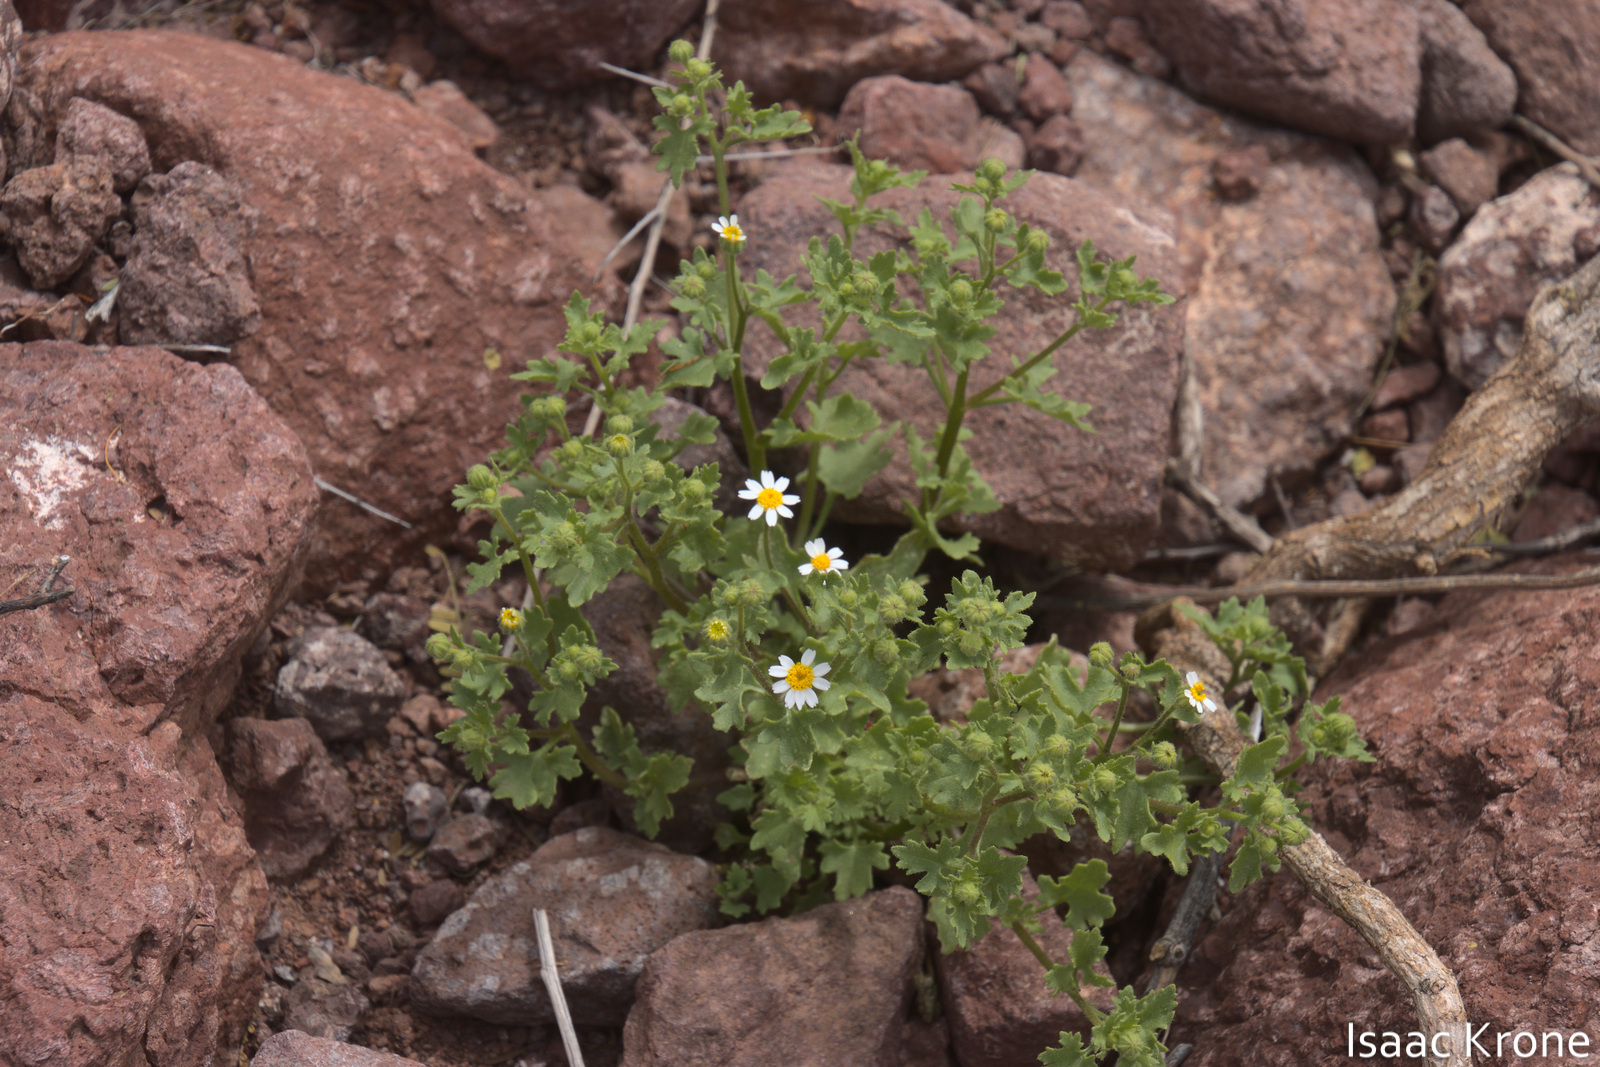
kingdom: Plantae
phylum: Tracheophyta
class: Magnoliopsida
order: Asterales
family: Asteraceae
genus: Laphamia
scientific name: Laphamia emoryi
